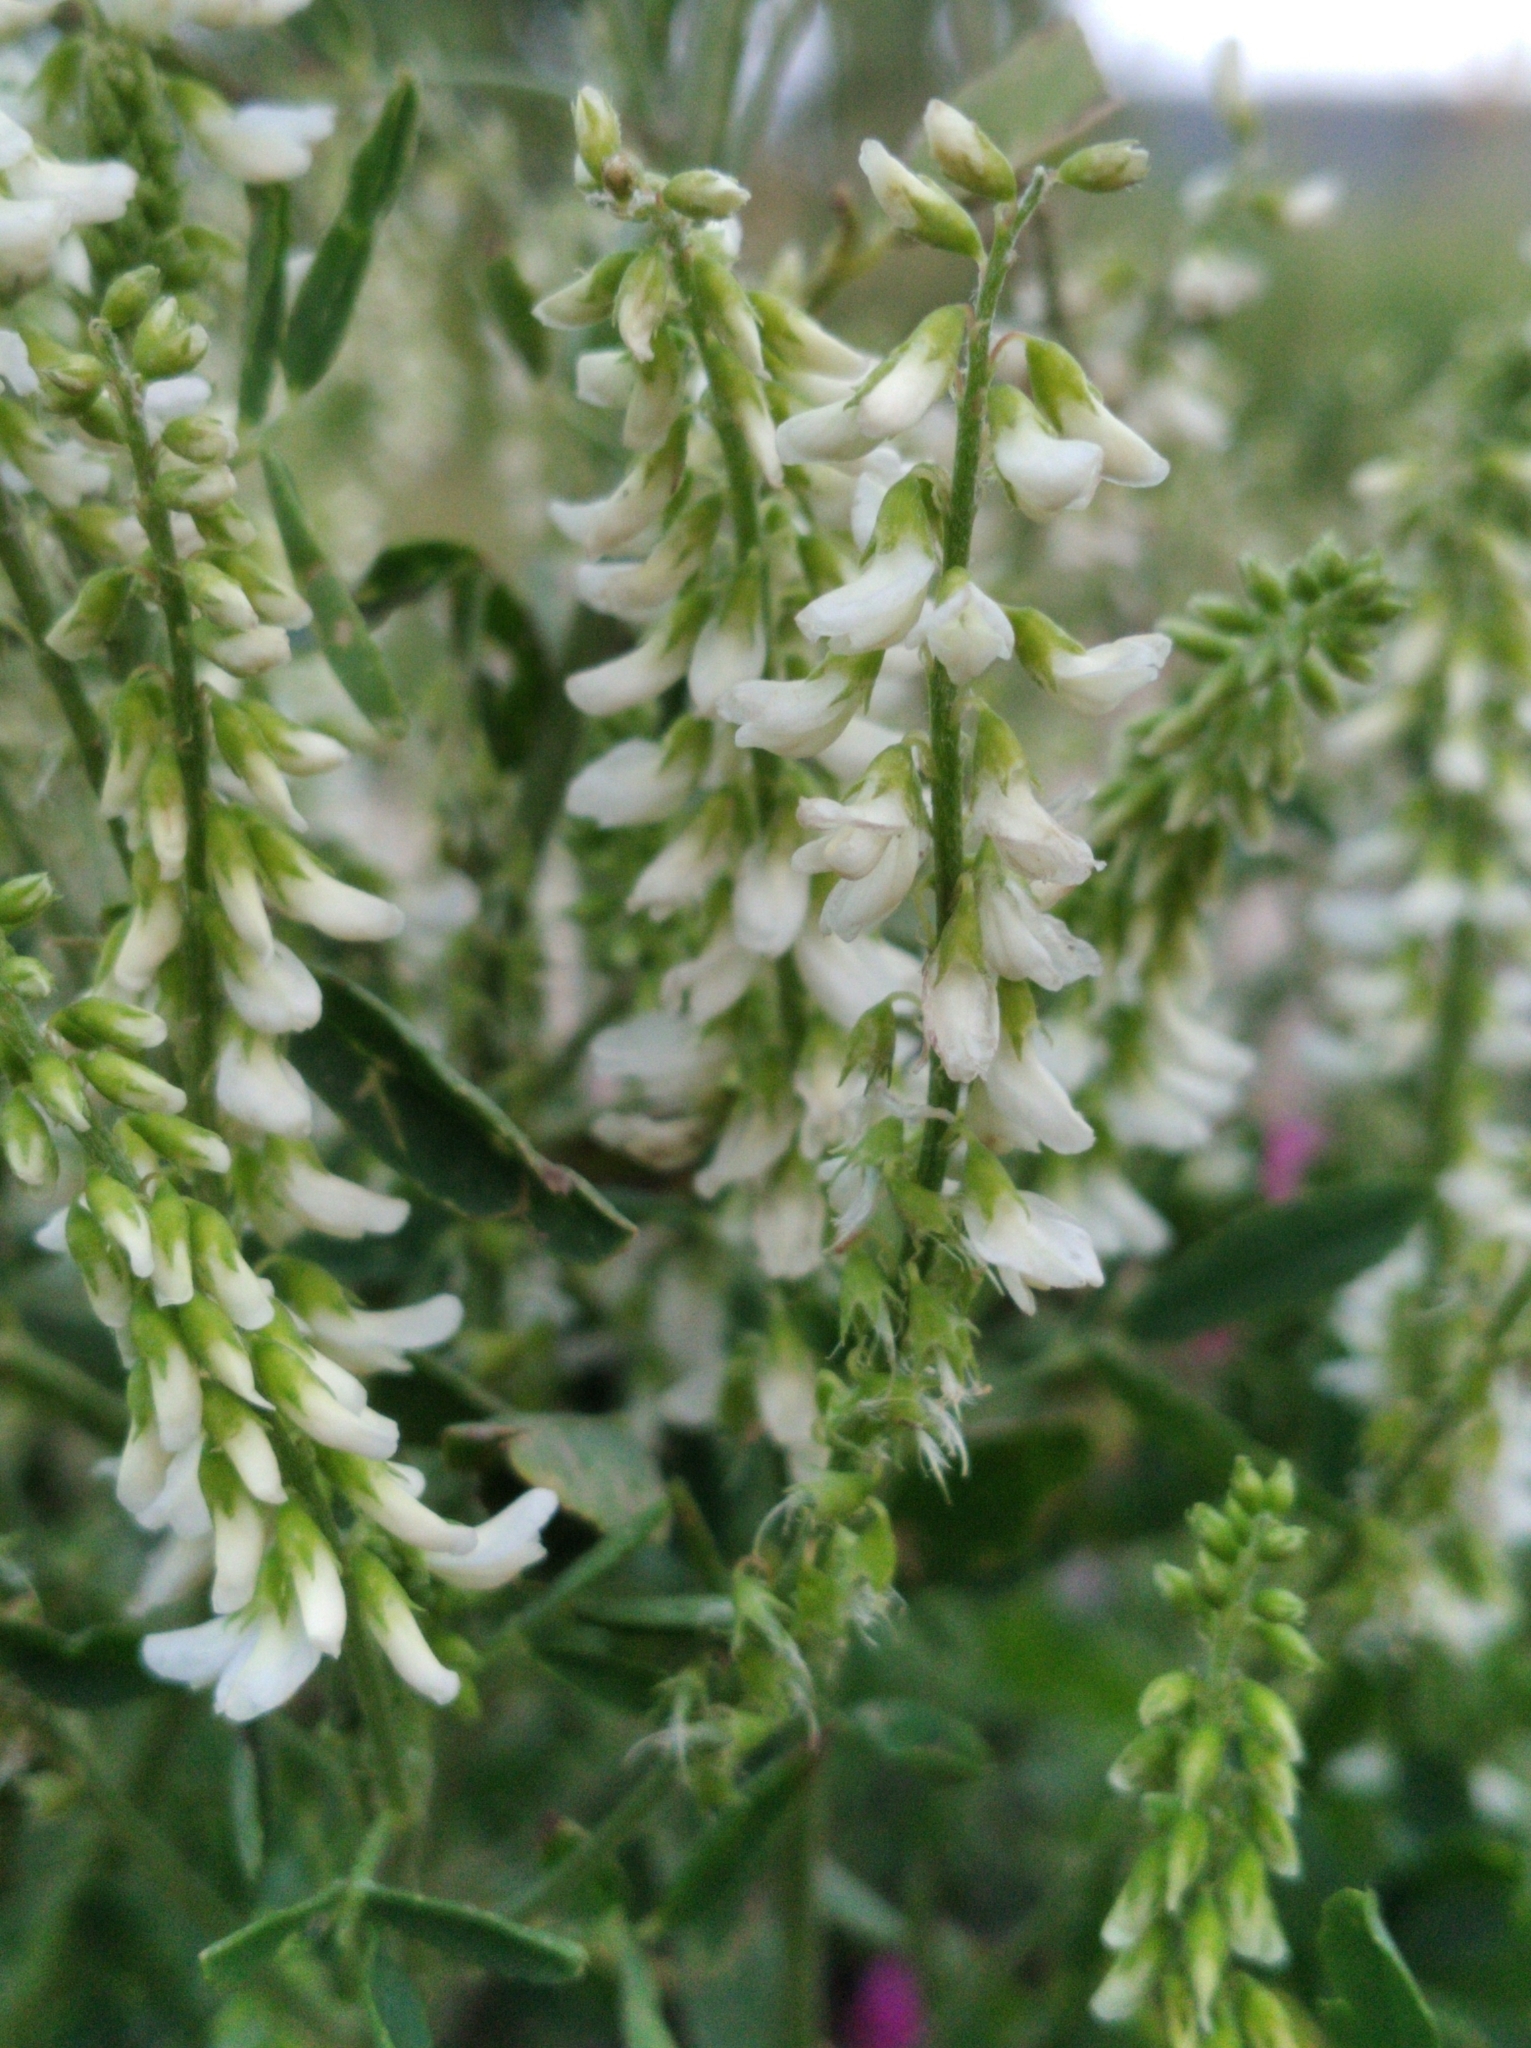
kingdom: Plantae
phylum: Tracheophyta
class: Magnoliopsida
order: Fabales
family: Fabaceae
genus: Melilotus
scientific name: Melilotus albus
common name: White melilot
